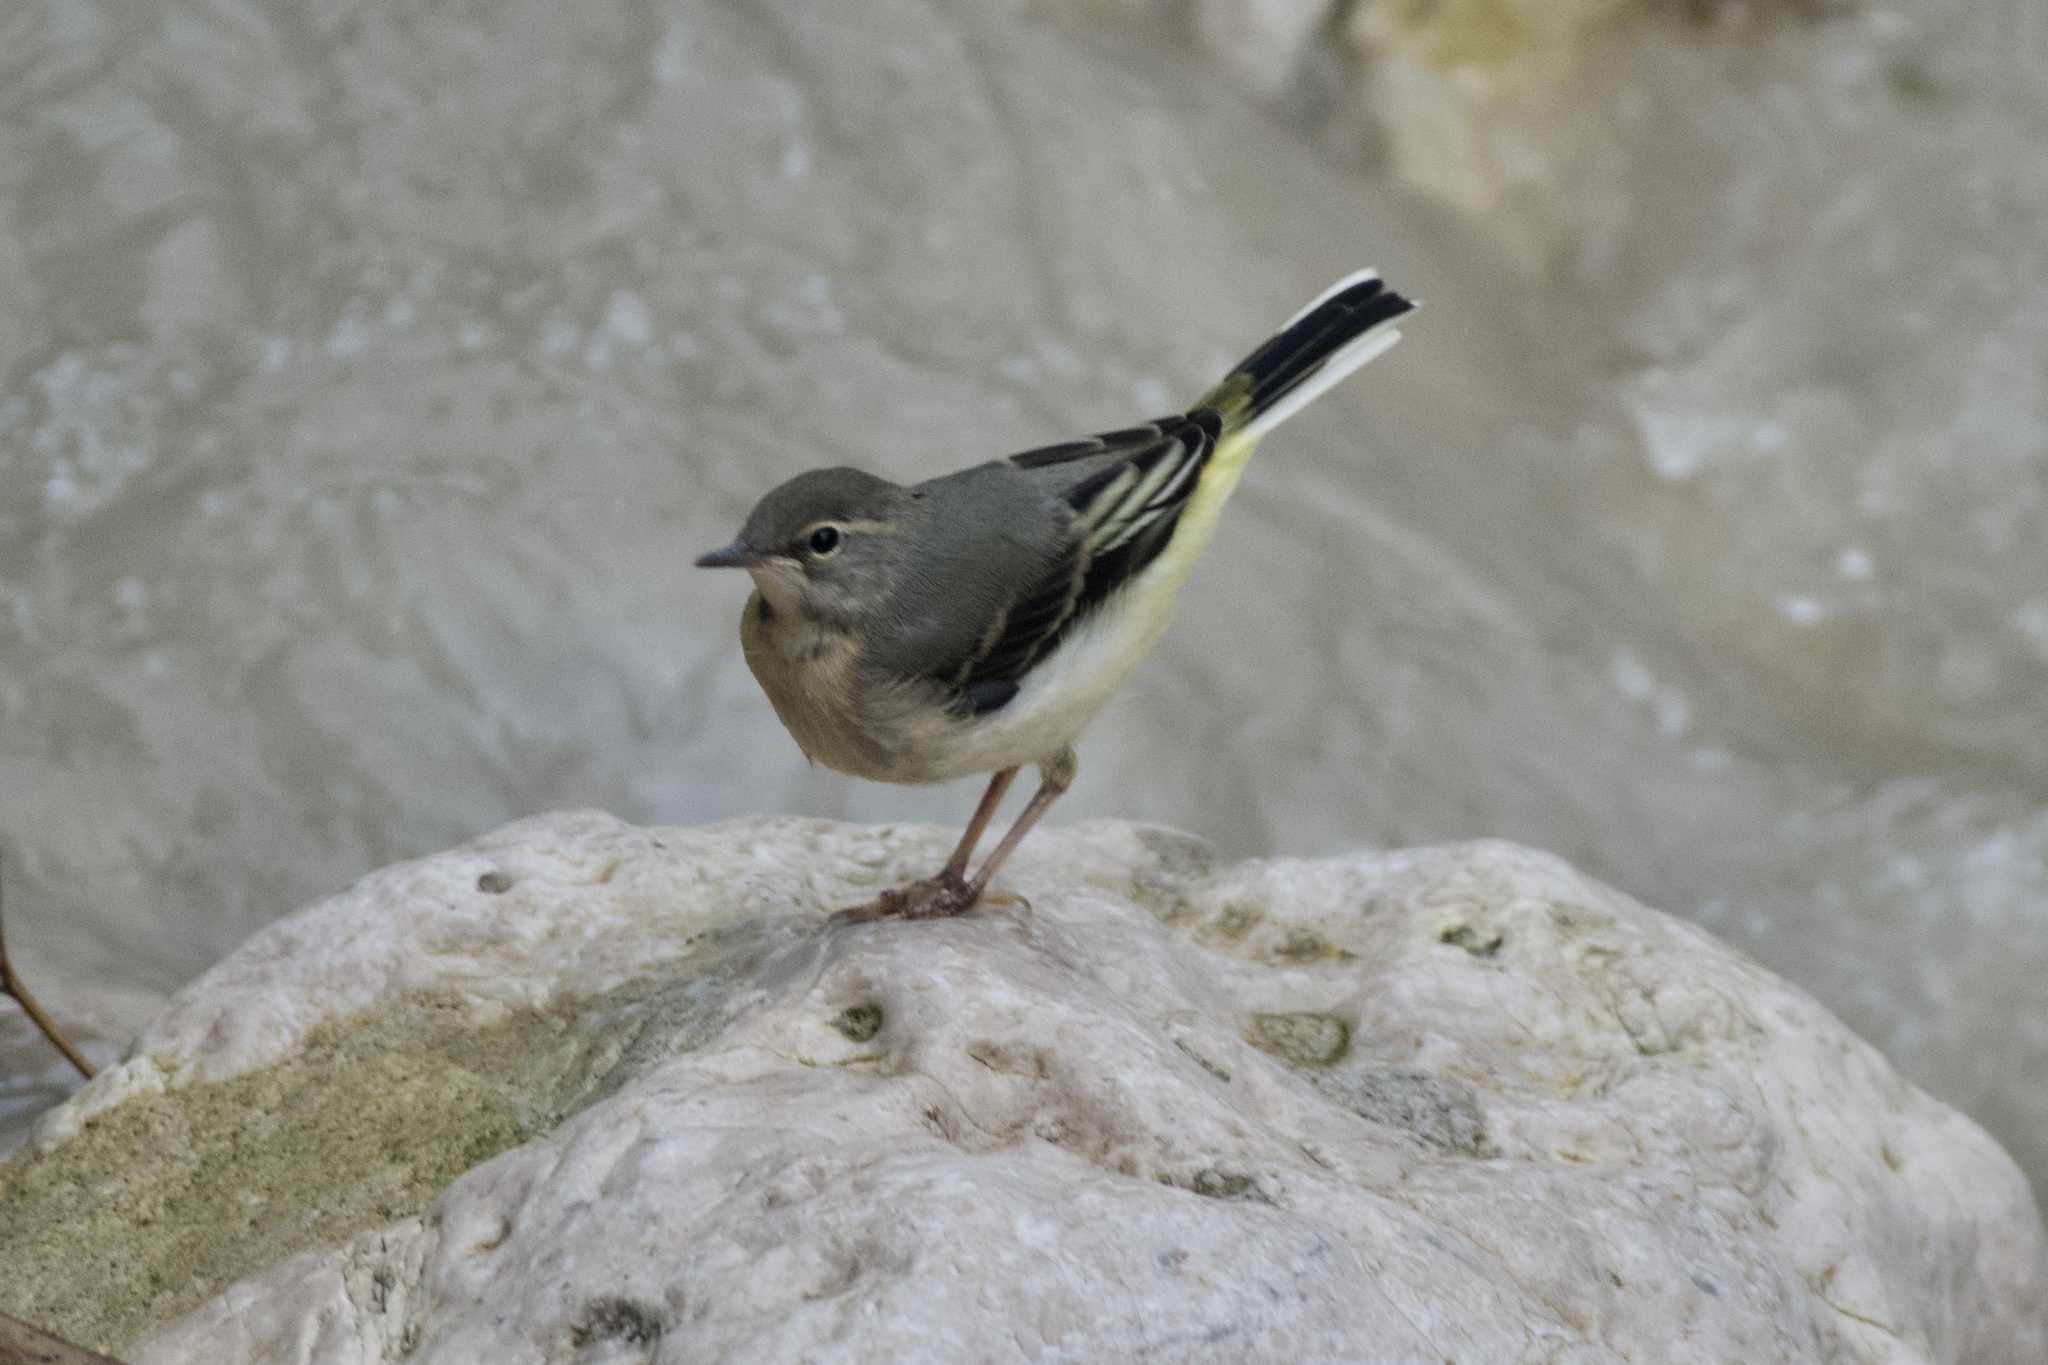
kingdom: Animalia
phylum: Chordata
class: Aves
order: Passeriformes
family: Motacillidae
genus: Motacilla
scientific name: Motacilla cinerea
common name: Grey wagtail
